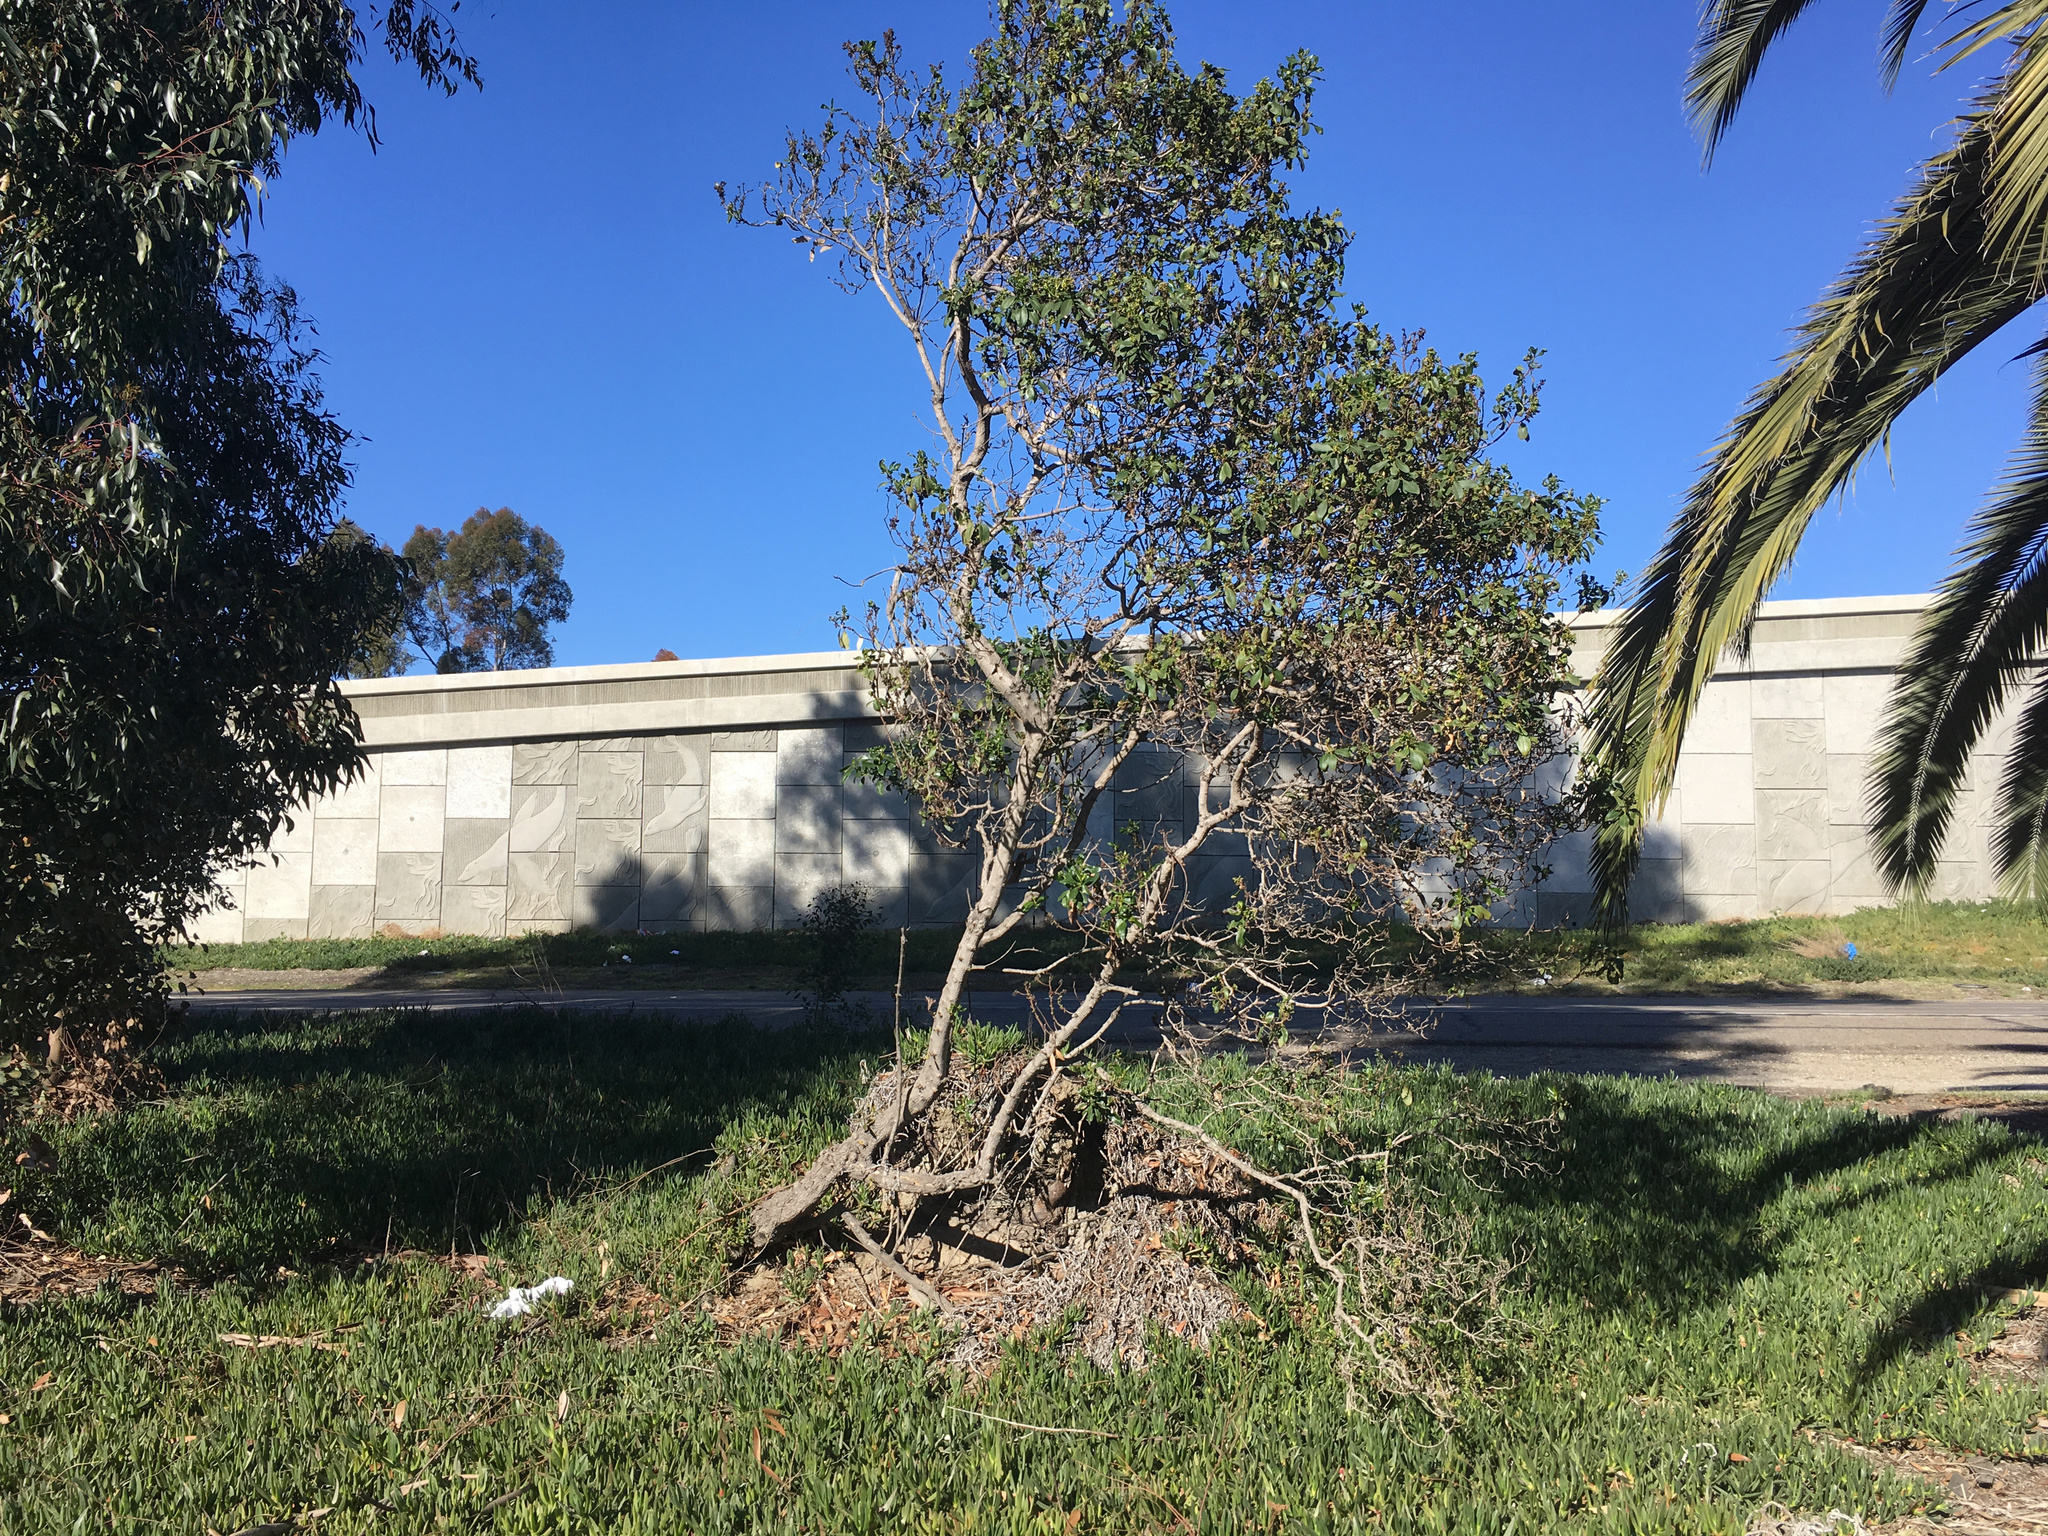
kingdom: Plantae
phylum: Tracheophyta
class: Magnoliopsida
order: Lamiales
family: Scrophulariaceae
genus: Myoporum
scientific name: Myoporum laetum
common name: Ngaio tree
